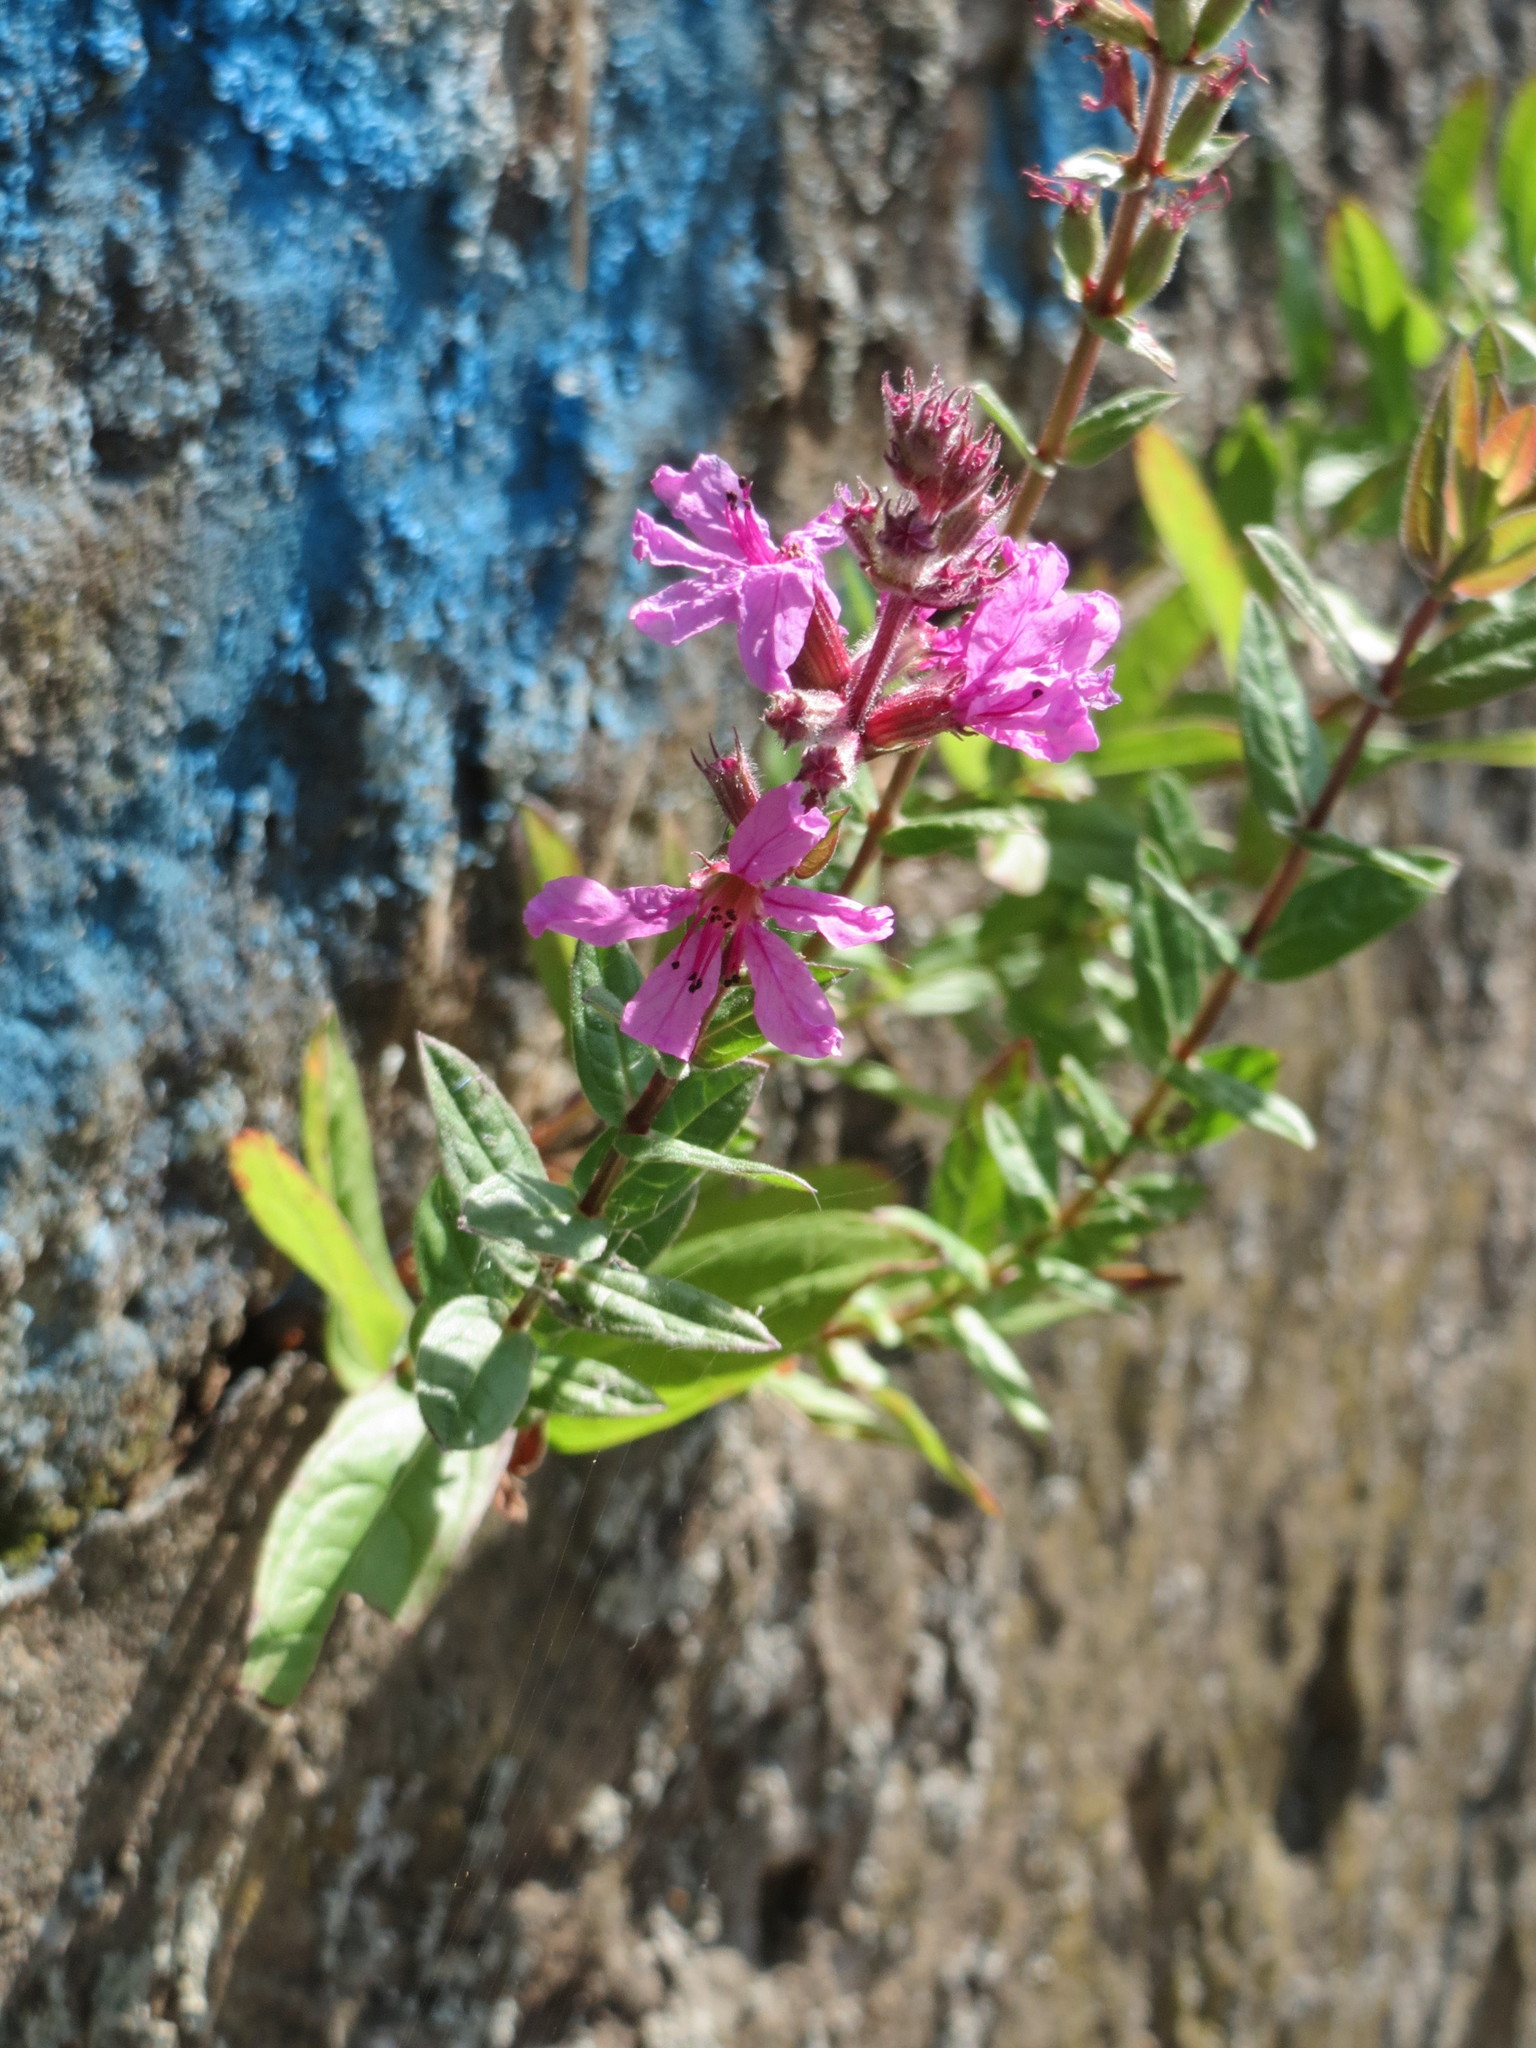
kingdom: Plantae
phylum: Tracheophyta
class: Magnoliopsida
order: Myrtales
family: Lythraceae
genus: Lythrum
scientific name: Lythrum salicaria
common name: Purple loosestrife
